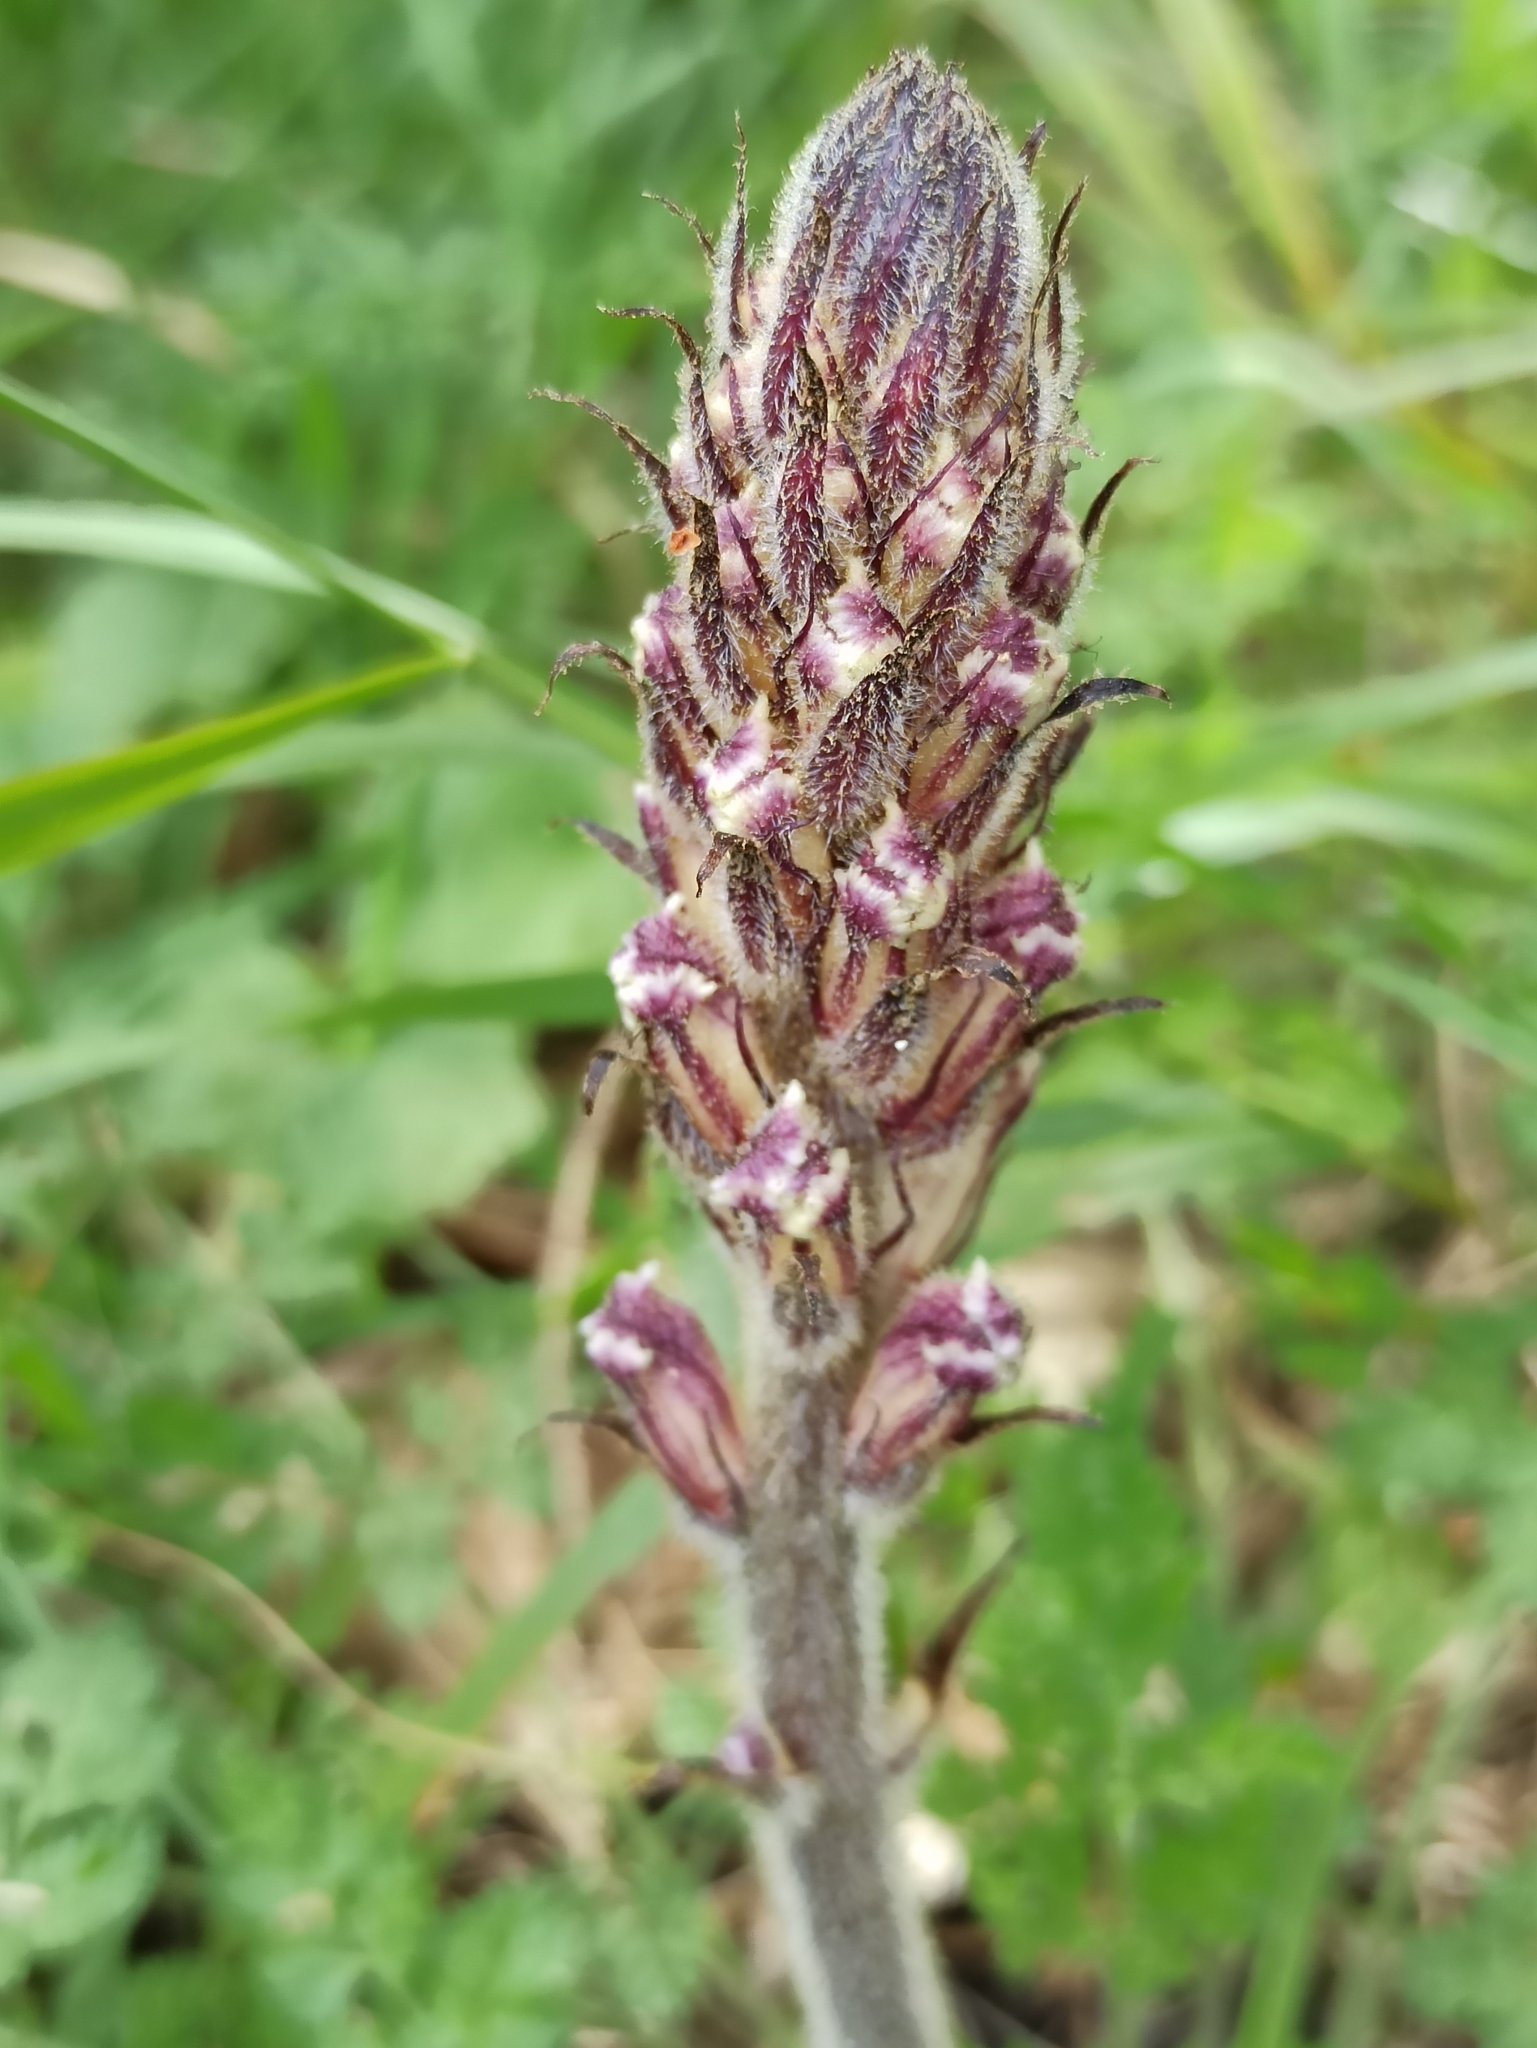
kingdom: Plantae
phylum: Tracheophyta
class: Magnoliopsida
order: Lamiales
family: Orobanchaceae
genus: Orobanche
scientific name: Orobanche crenata
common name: Bean broomrape
